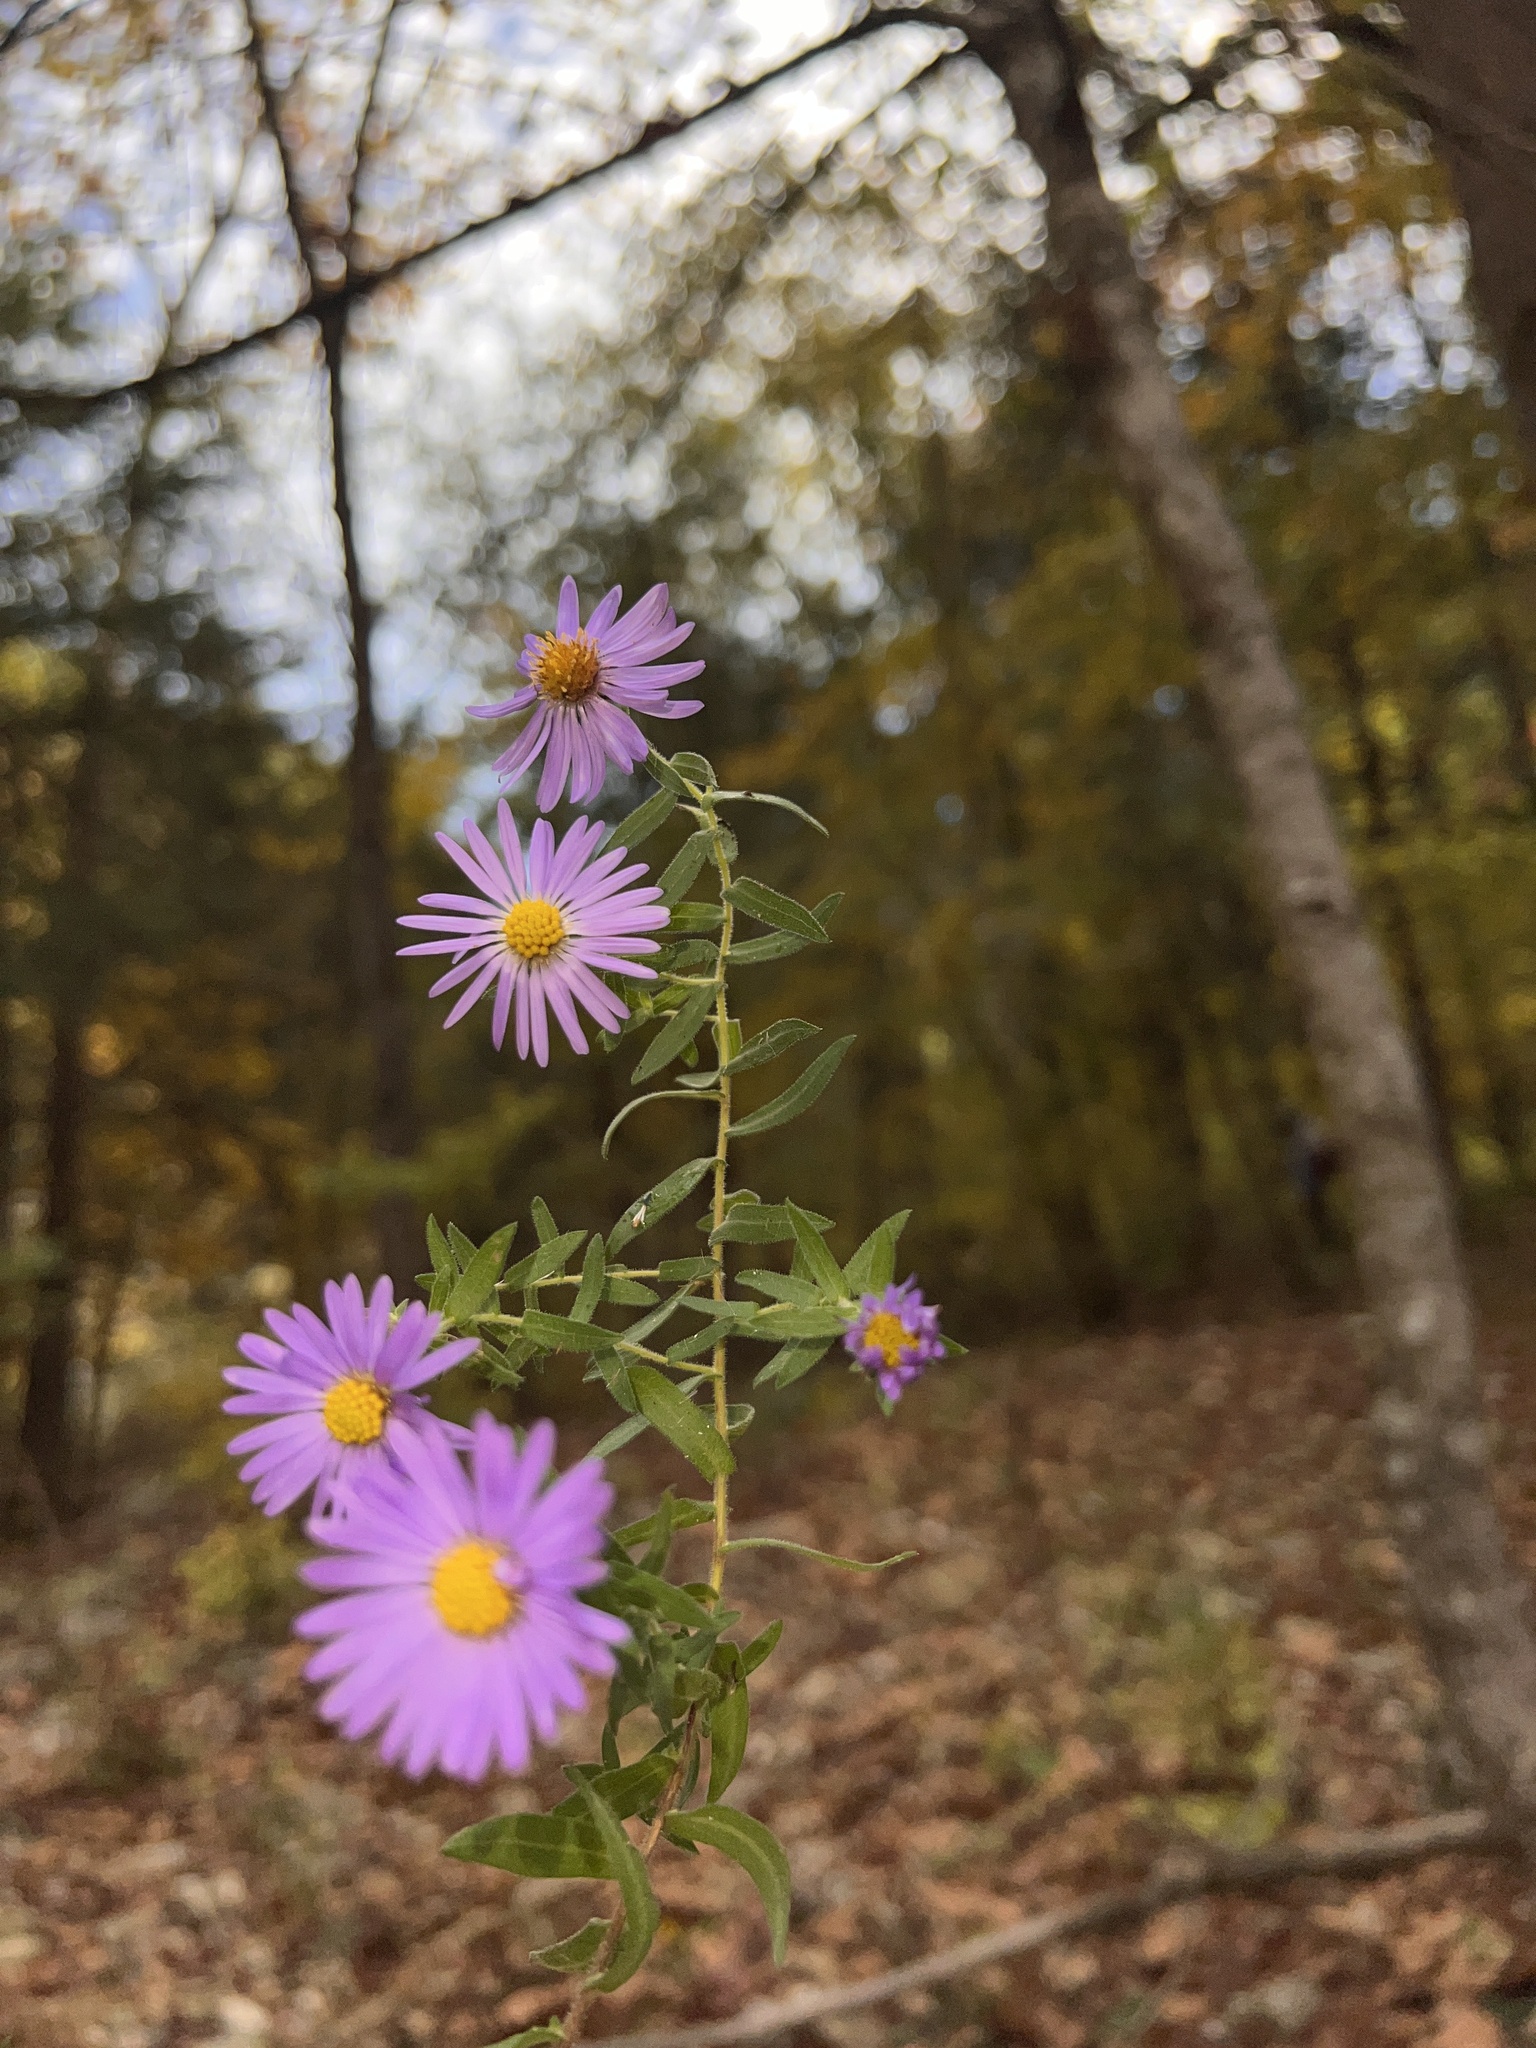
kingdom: Plantae
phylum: Tracheophyta
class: Magnoliopsida
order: Asterales
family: Asteraceae
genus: Symphyotrichum
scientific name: Symphyotrichum oblongifolium
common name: Aromatic aster
